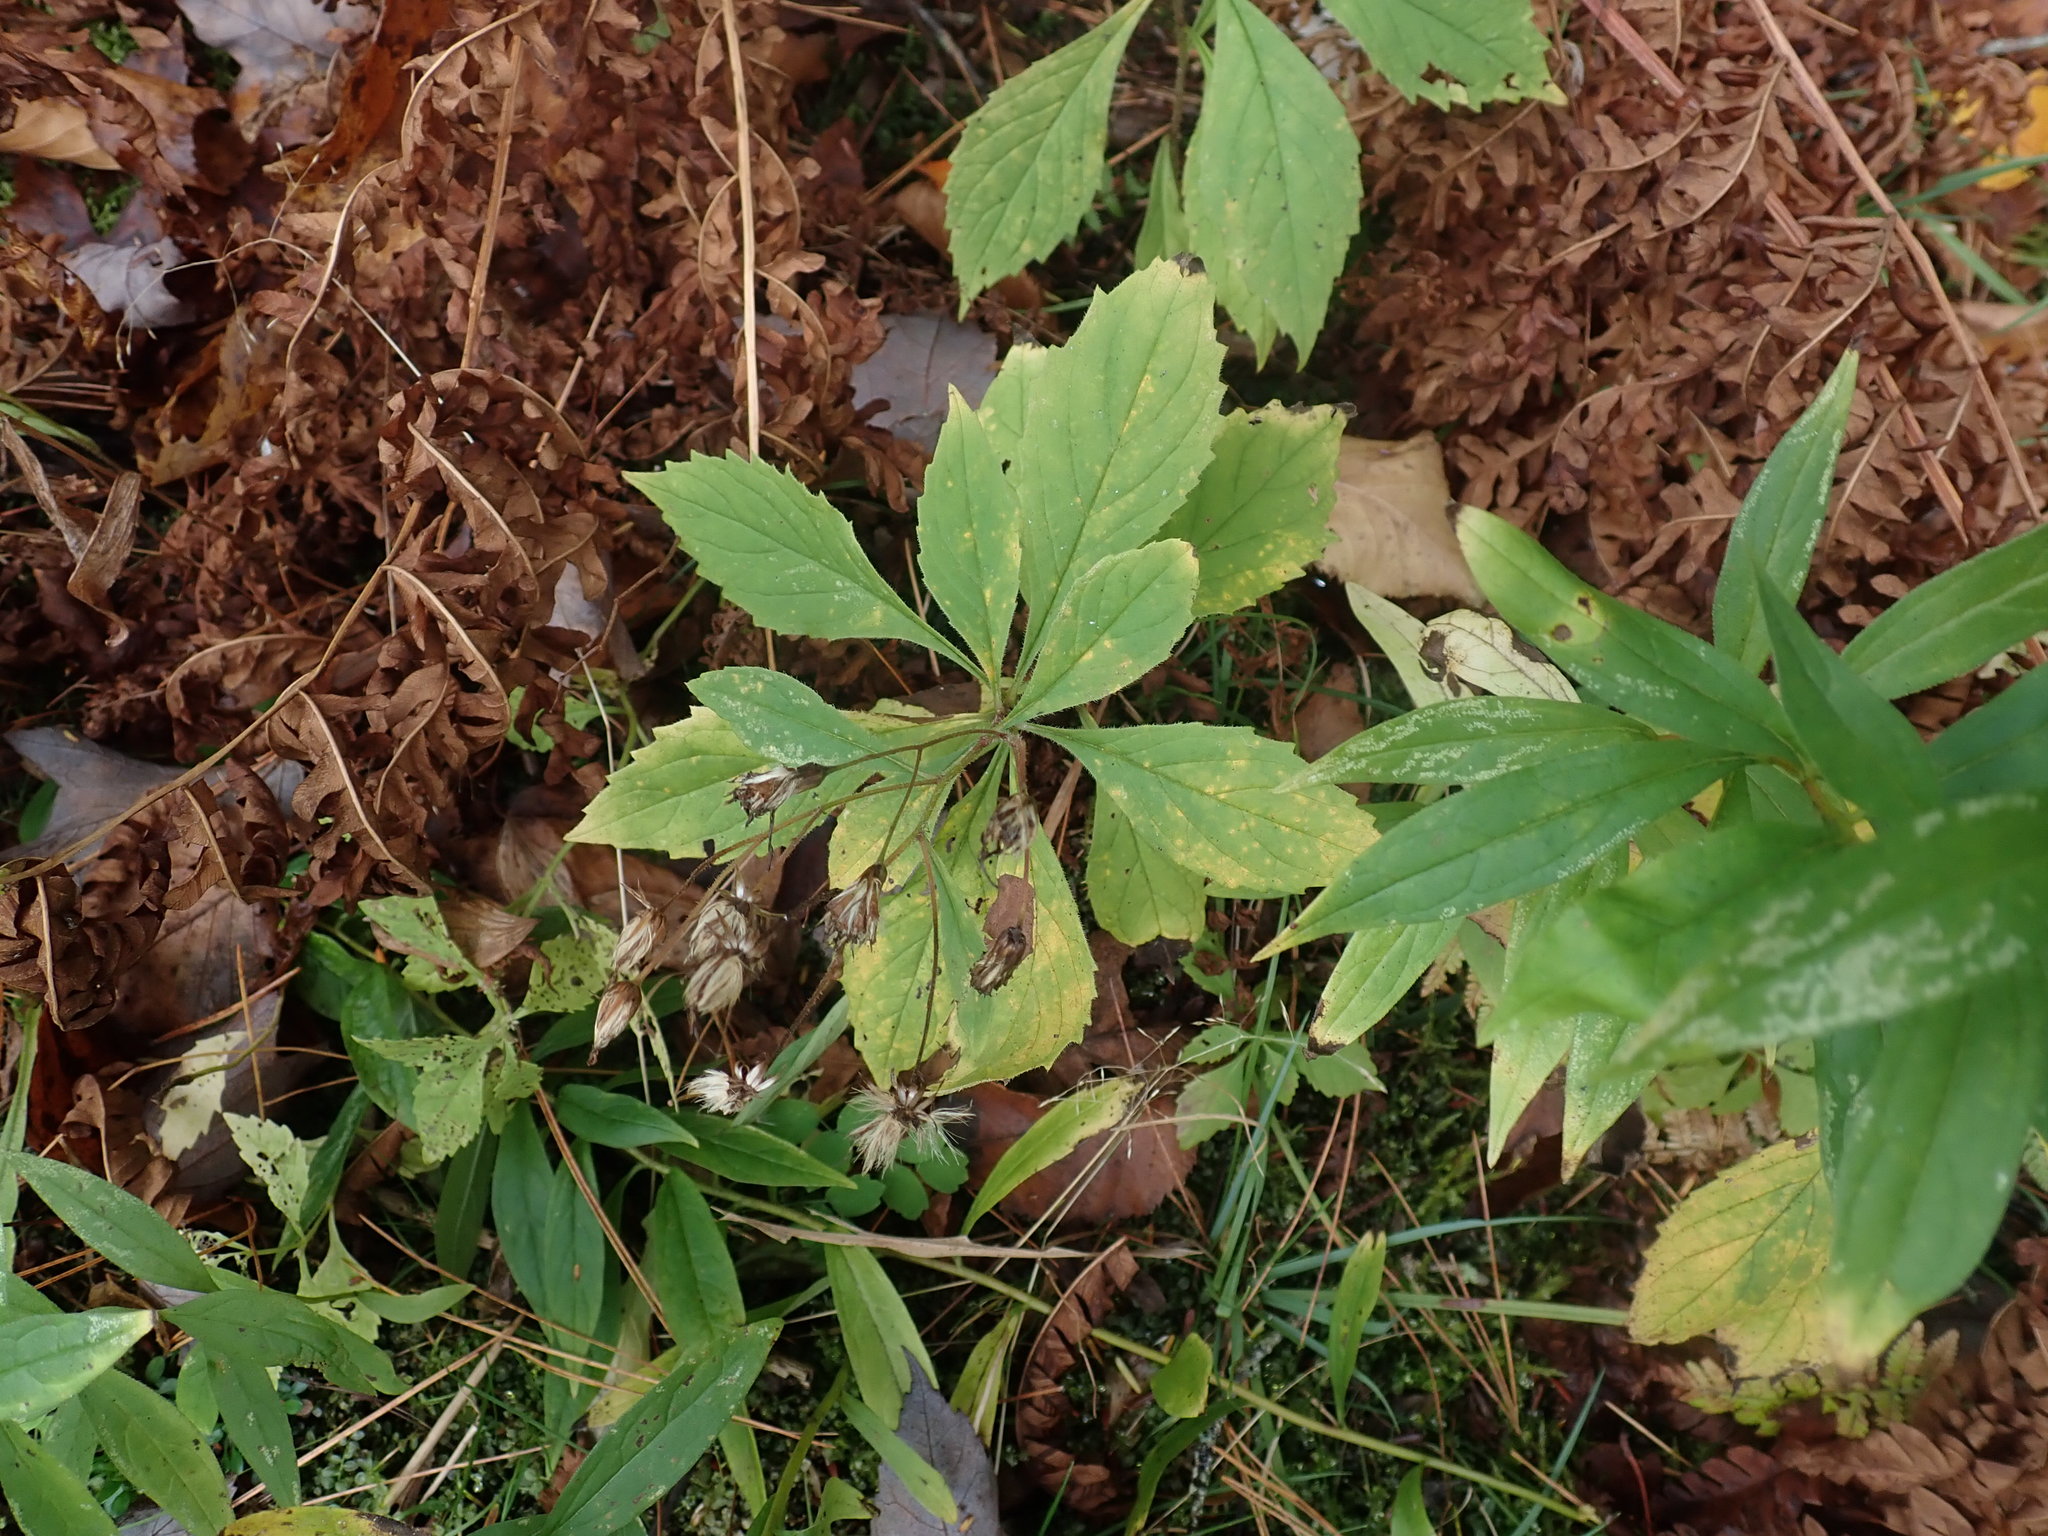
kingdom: Plantae
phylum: Tracheophyta
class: Magnoliopsida
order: Asterales
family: Asteraceae
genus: Oclemena
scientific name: Oclemena acuminata
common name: Mountain aster
